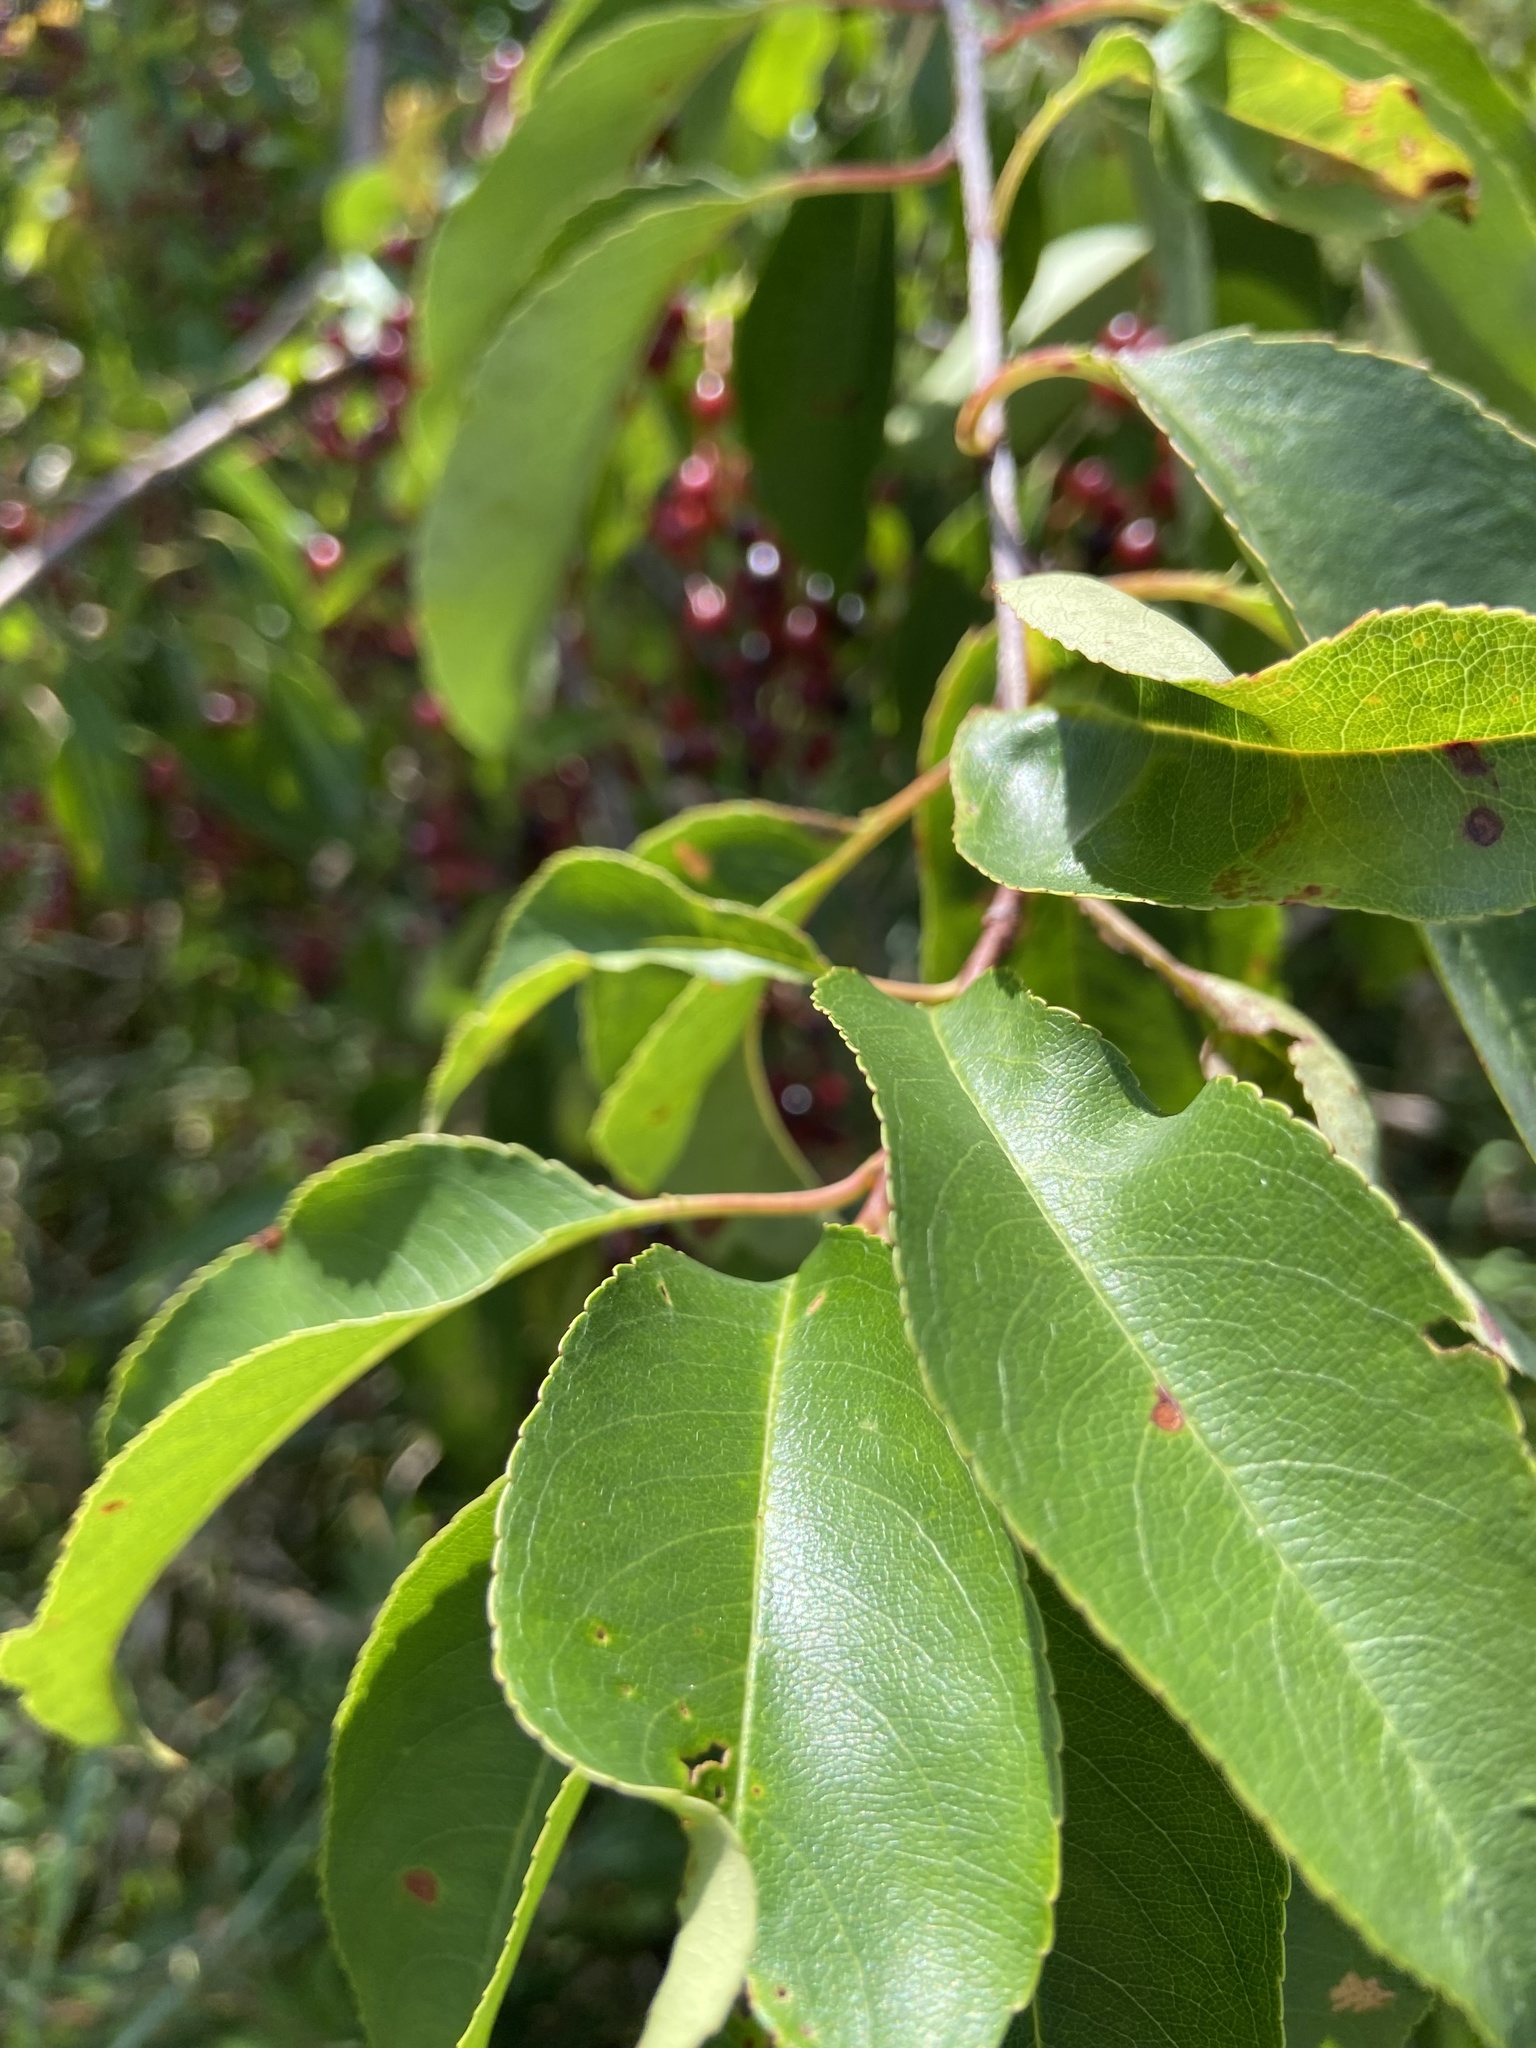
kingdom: Plantae
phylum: Tracheophyta
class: Magnoliopsida
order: Rosales
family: Rosaceae
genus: Prunus
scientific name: Prunus serotina
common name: Black cherry
